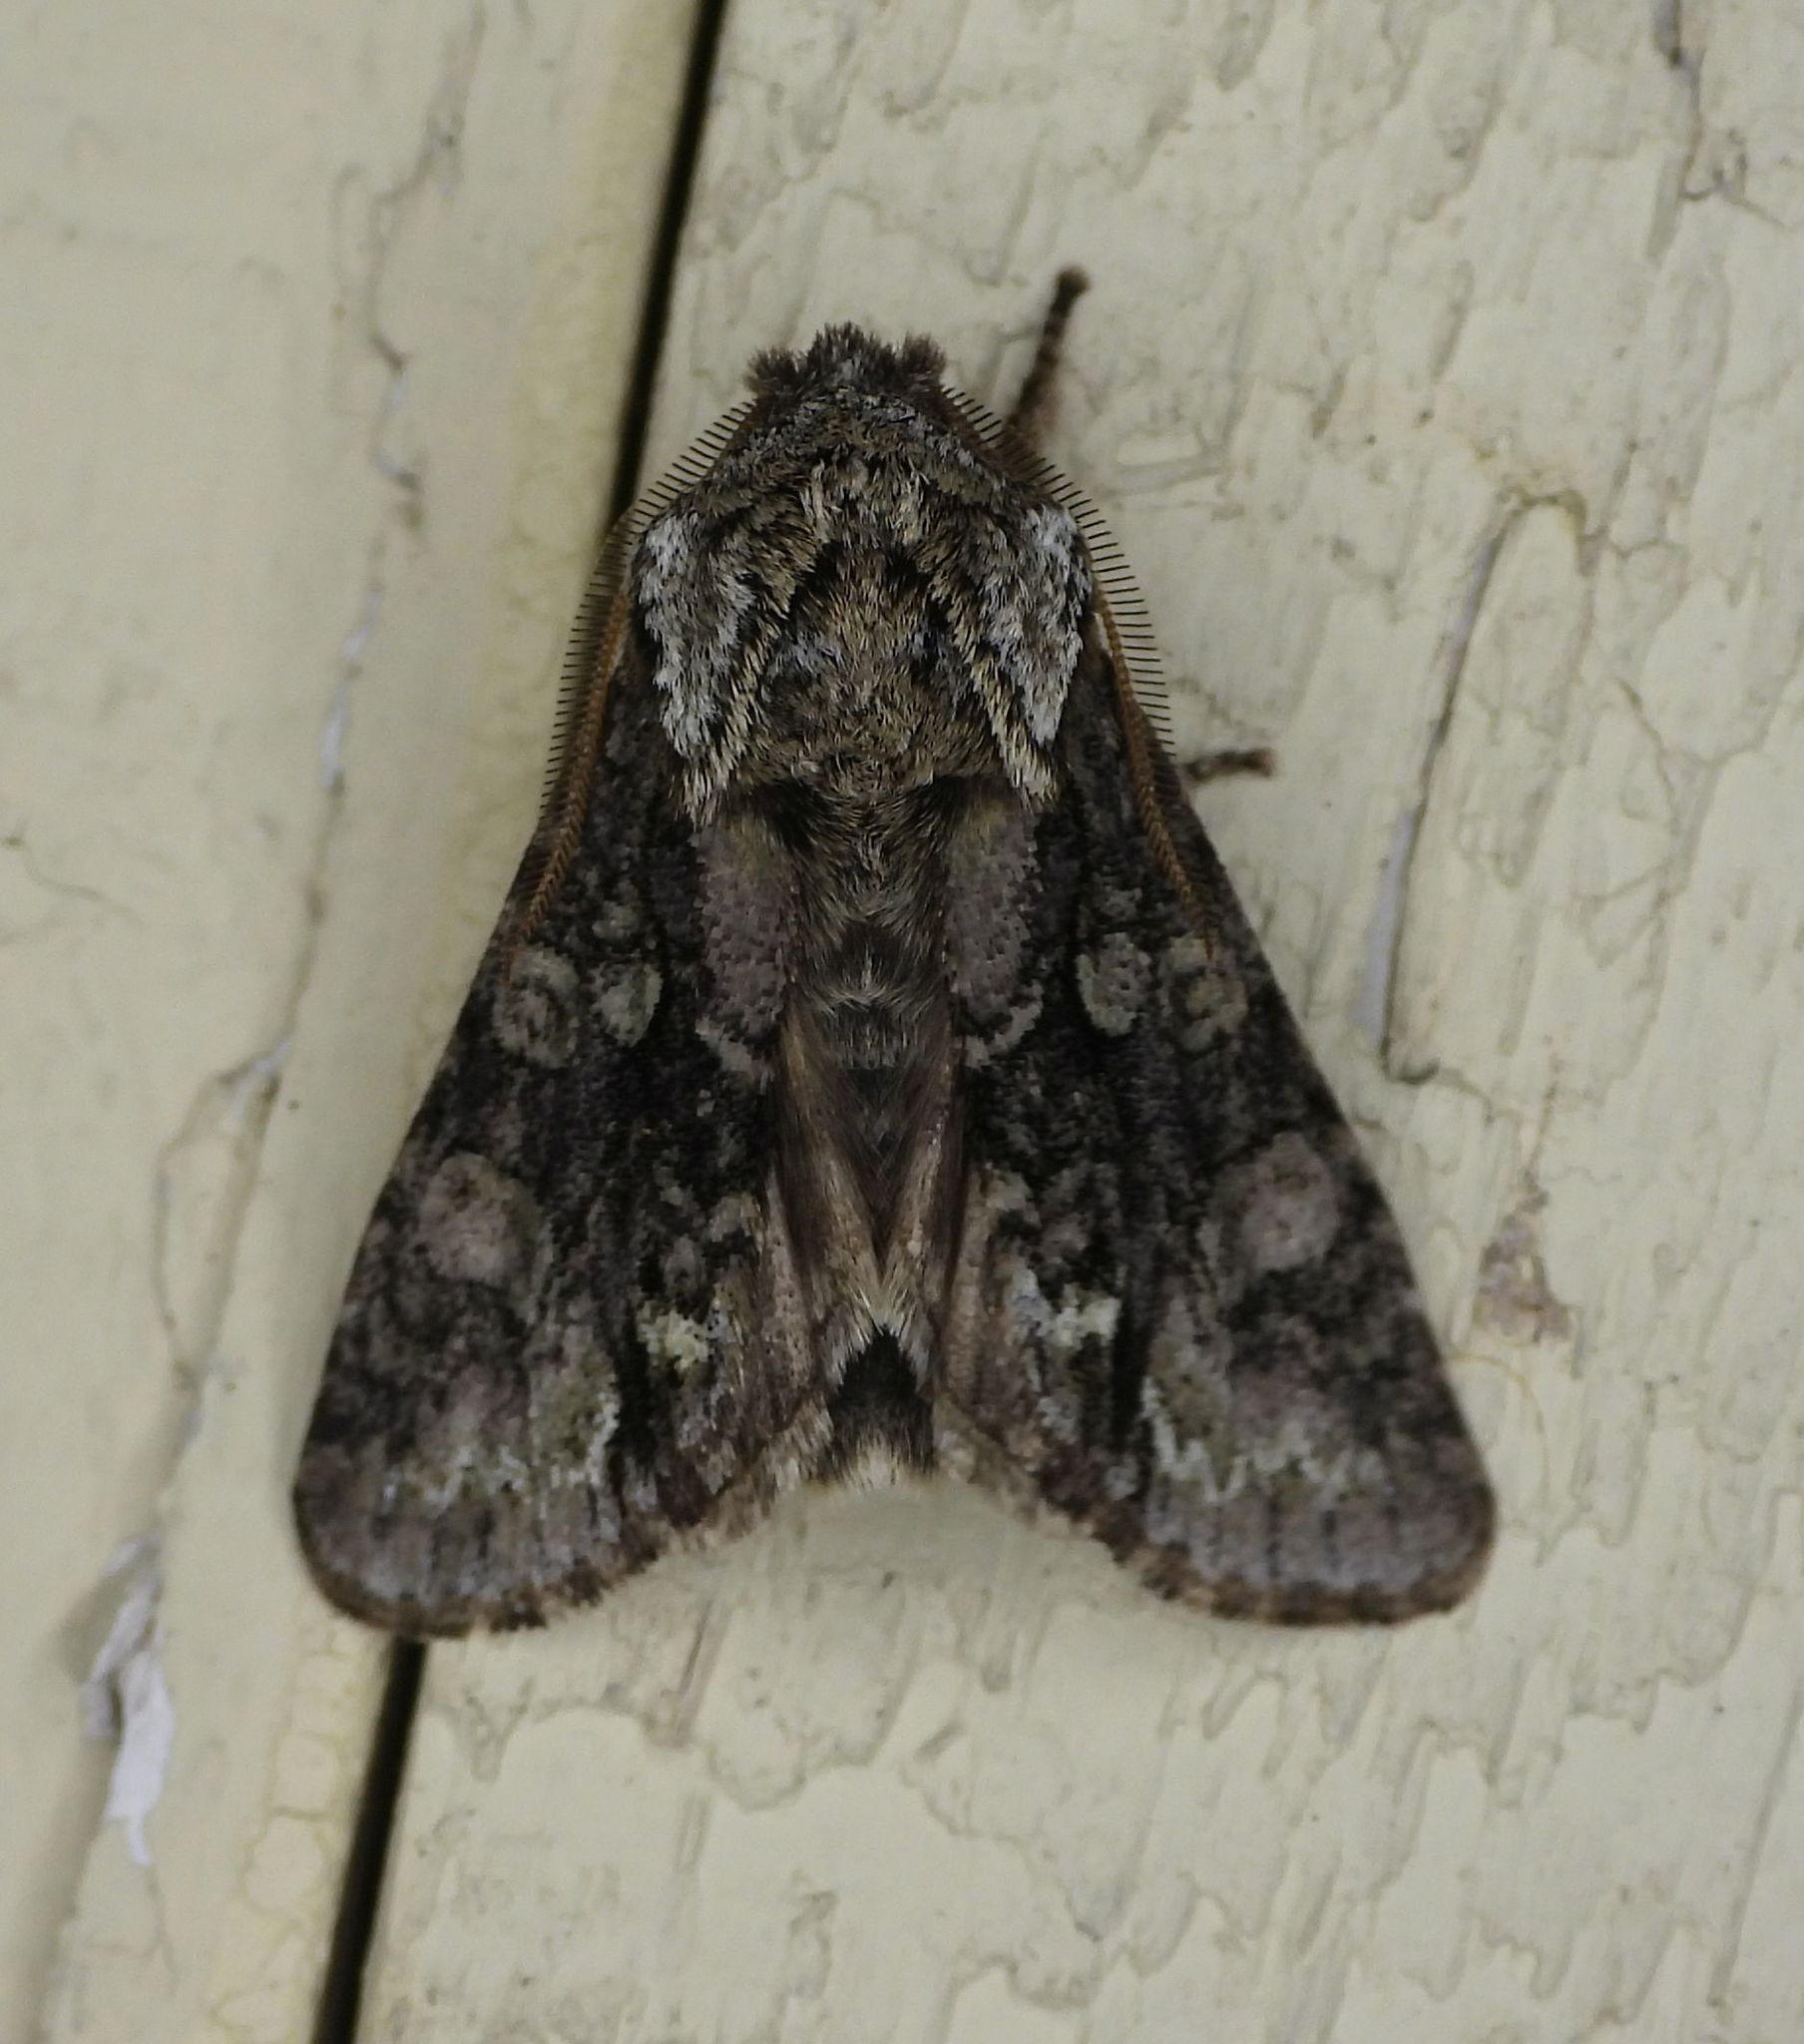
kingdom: Animalia
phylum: Arthropoda
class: Insecta
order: Lepidoptera
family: Noctuidae
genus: Psaphida
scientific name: Psaphida resumens
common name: Figure-eight sallow
